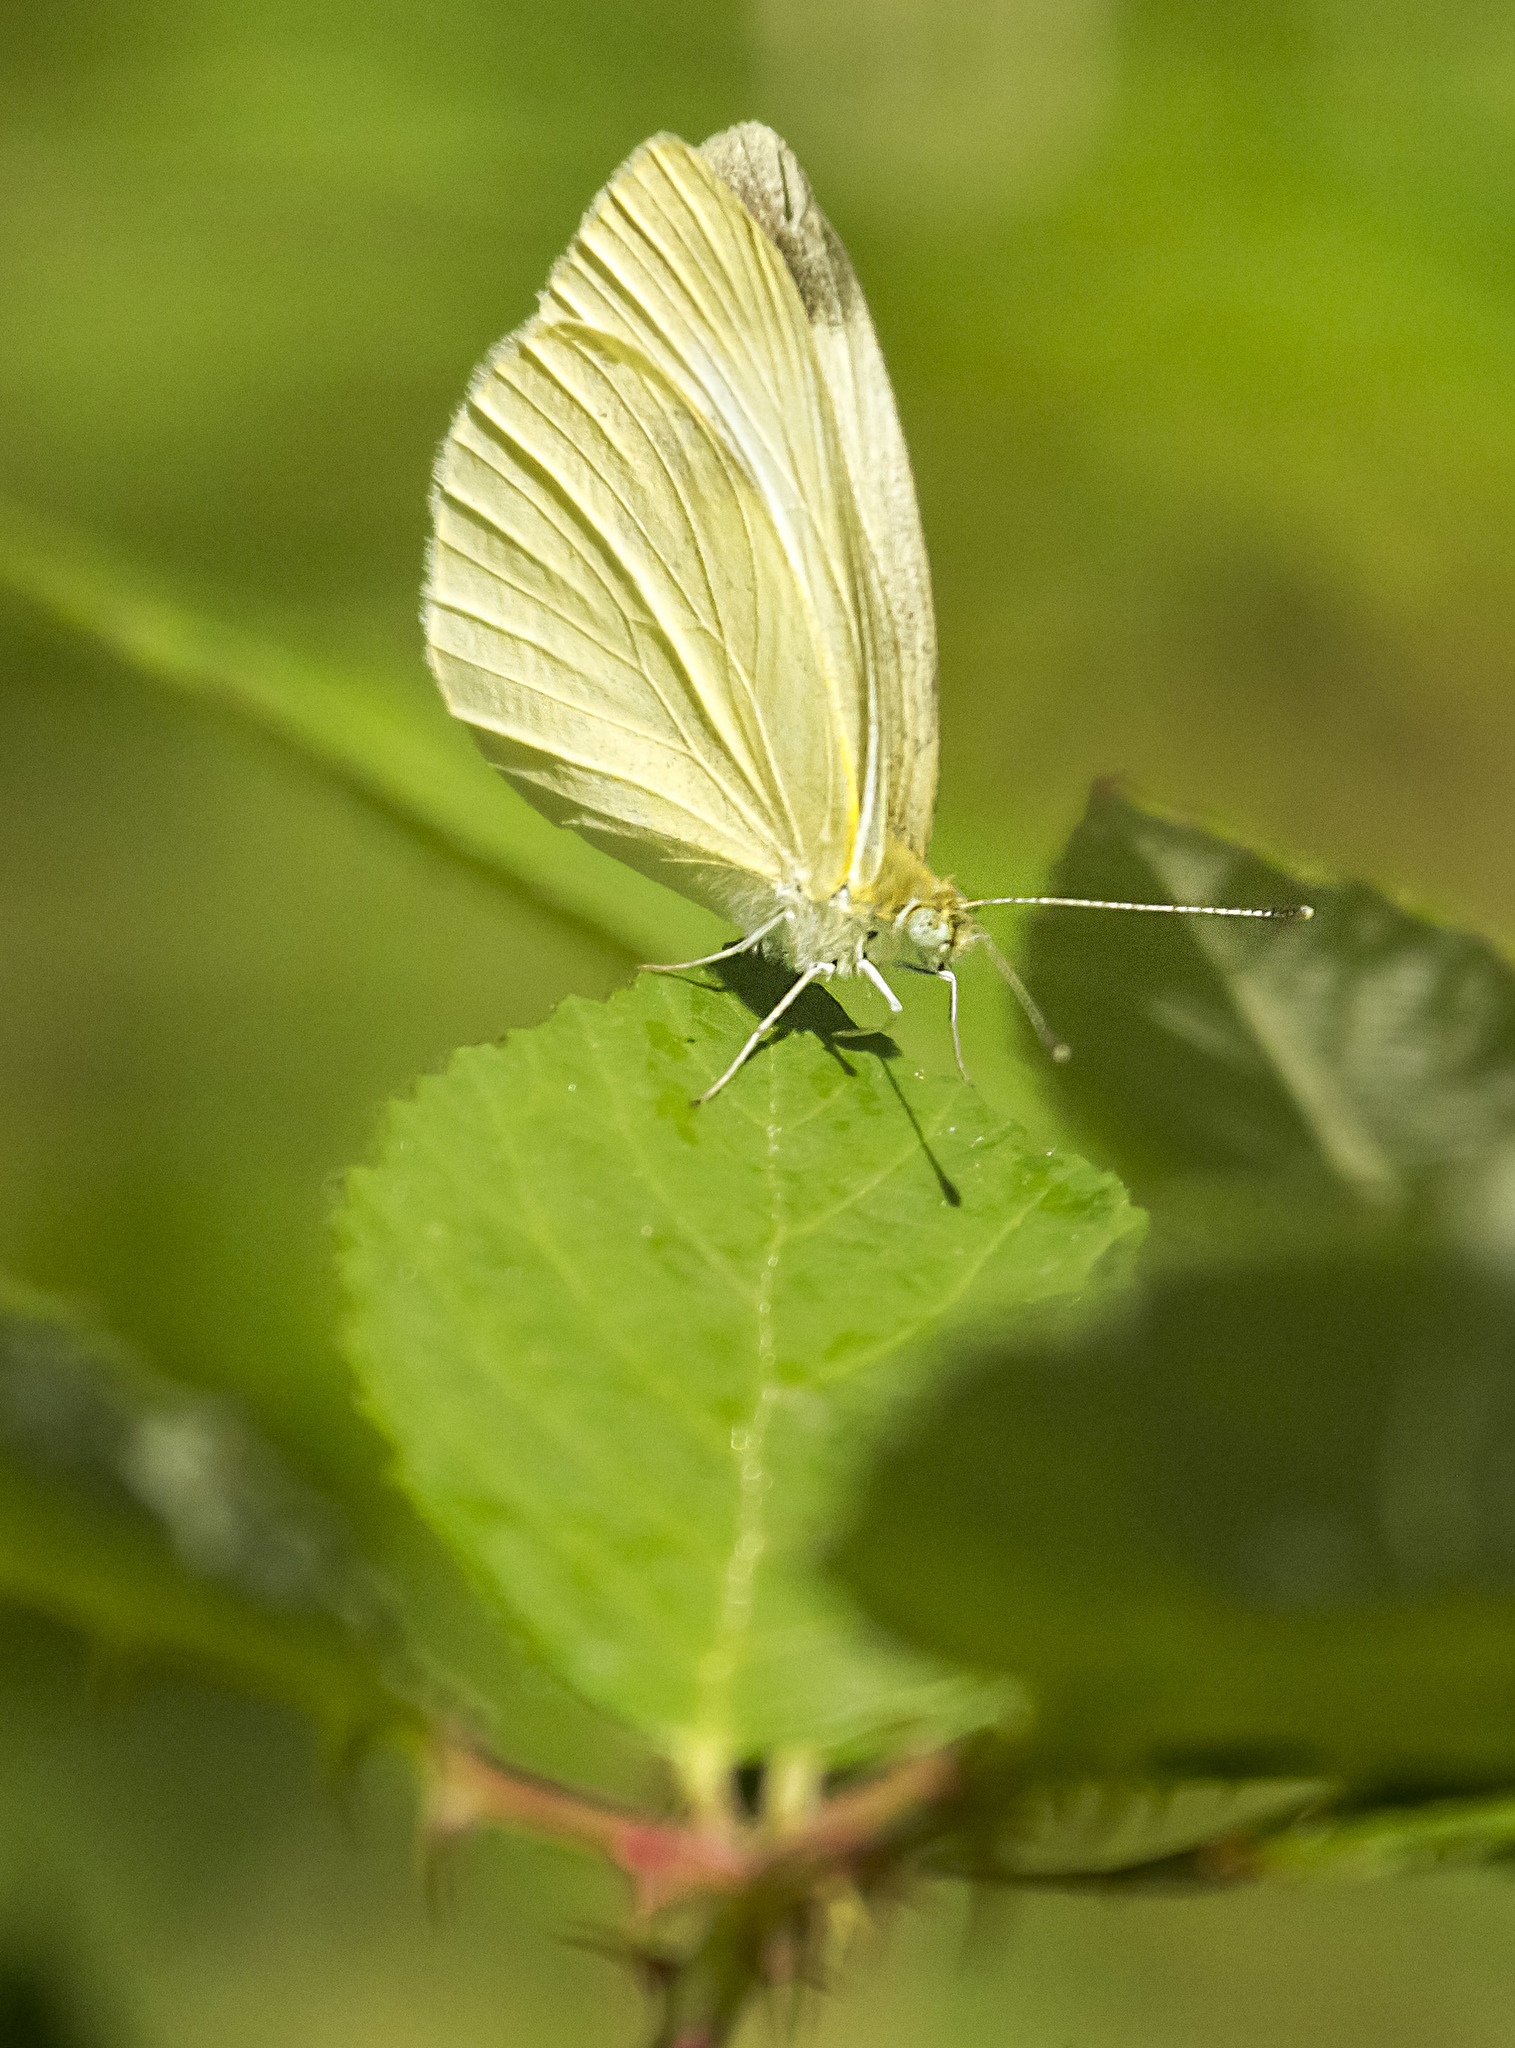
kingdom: Animalia
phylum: Arthropoda
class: Insecta
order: Lepidoptera
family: Pieridae
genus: Pieris
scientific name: Pieris rapae
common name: Small white
